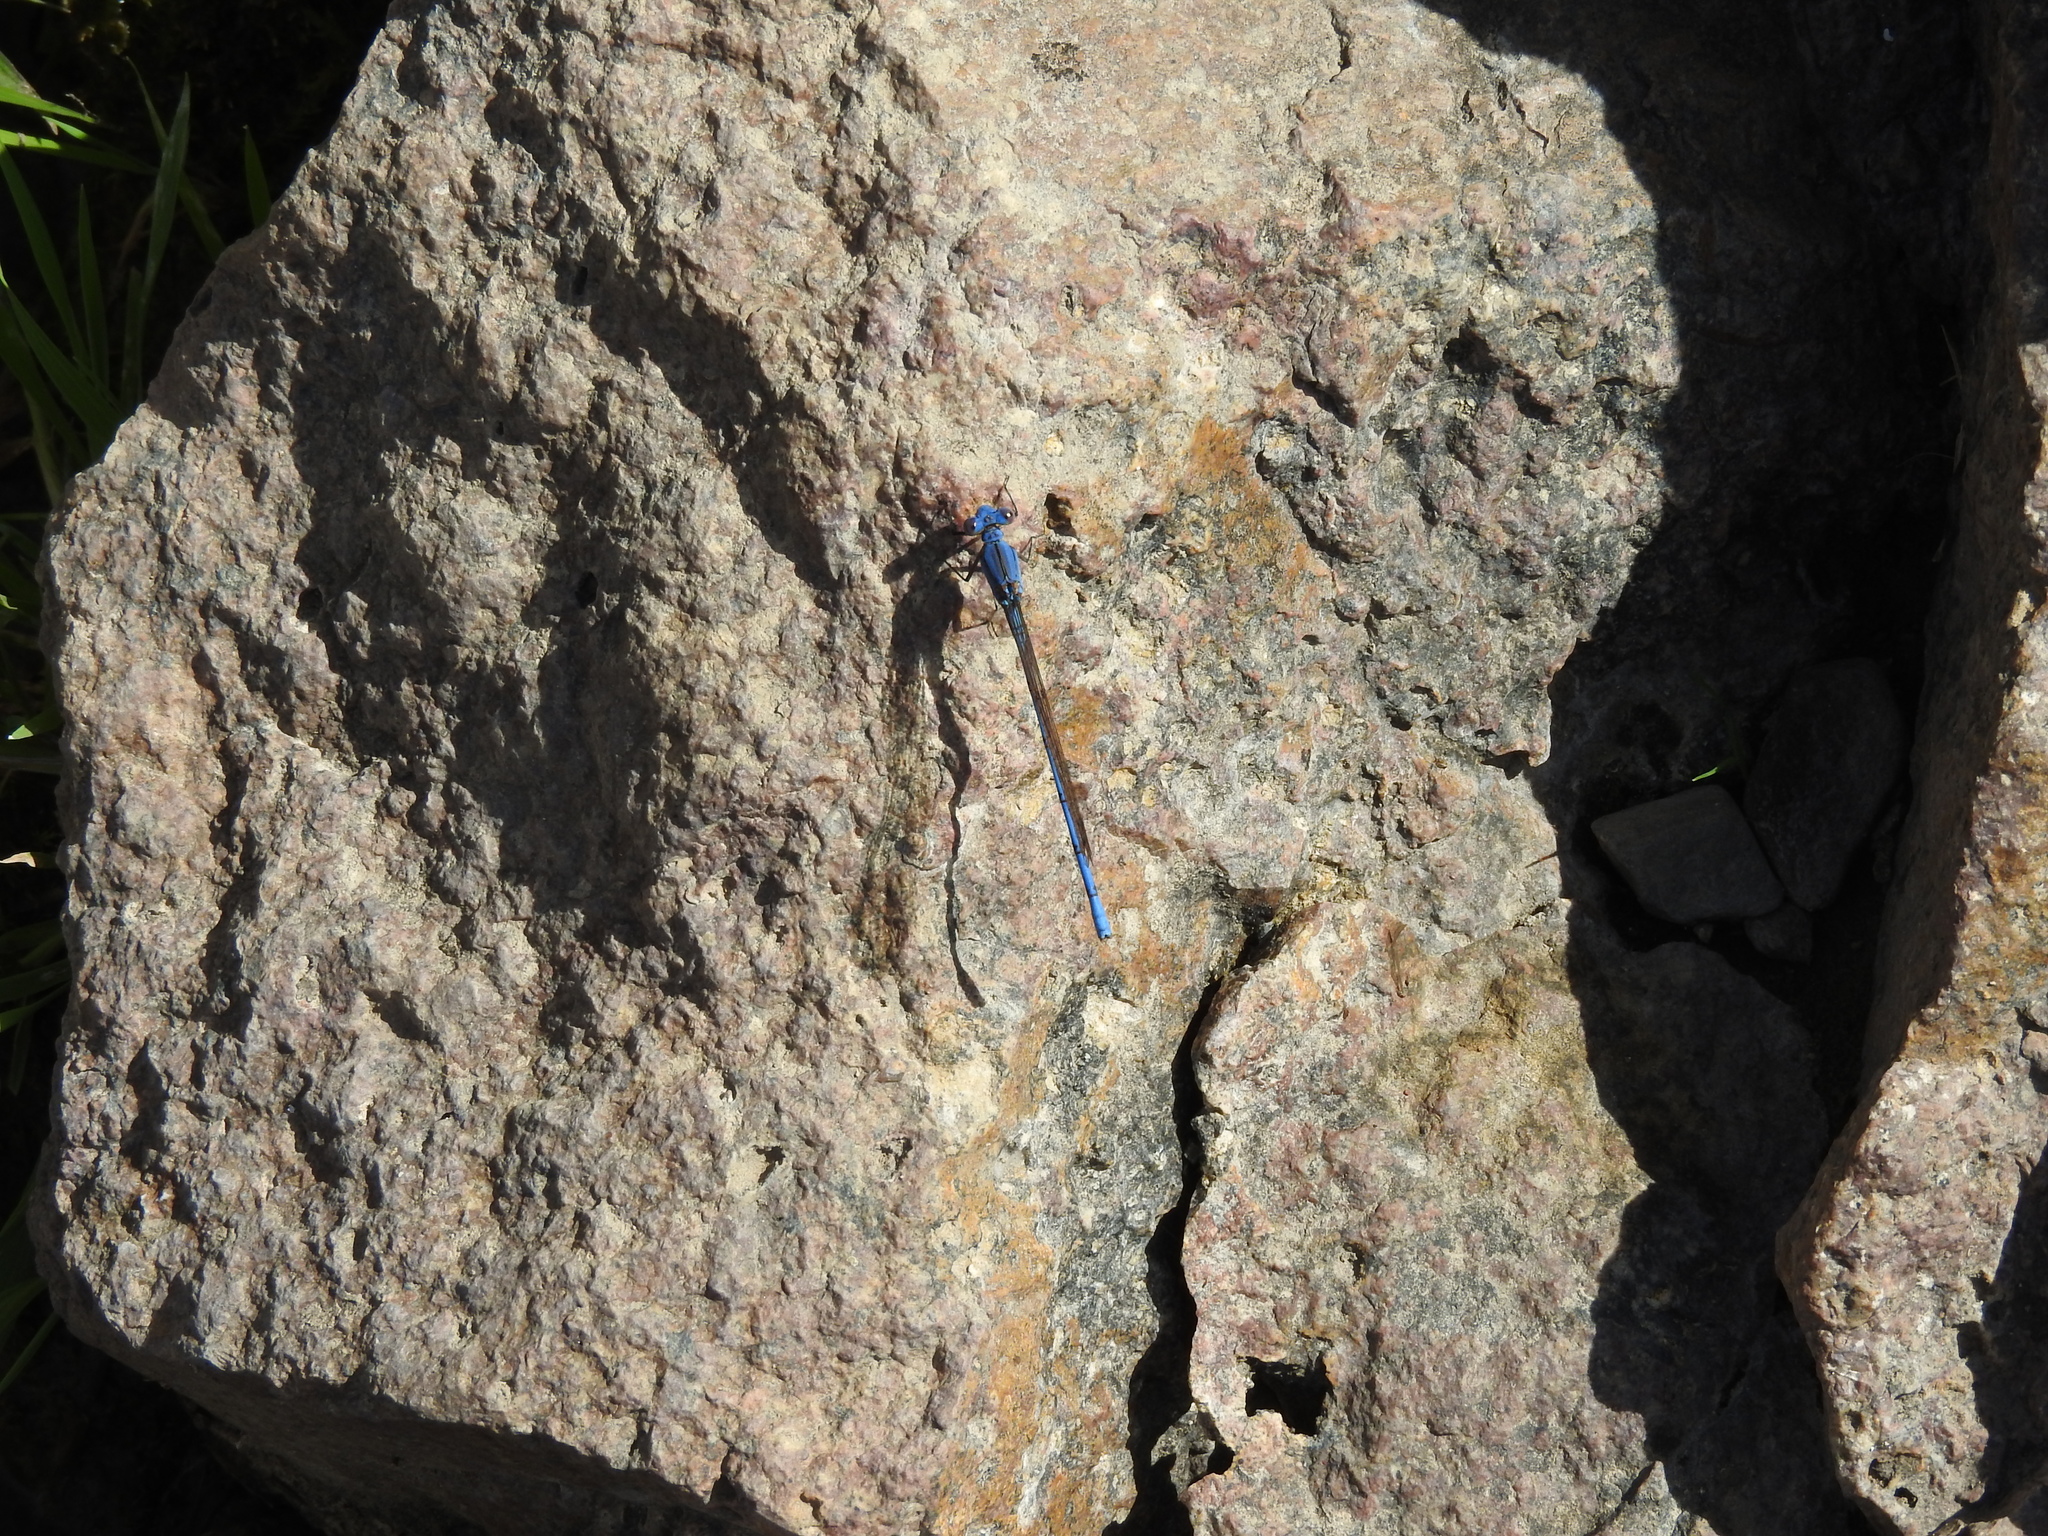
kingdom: Animalia
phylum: Arthropoda
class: Insecta
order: Odonata
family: Coenagrionidae
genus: Argia
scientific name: Argia anceps
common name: Cerulean dancer
